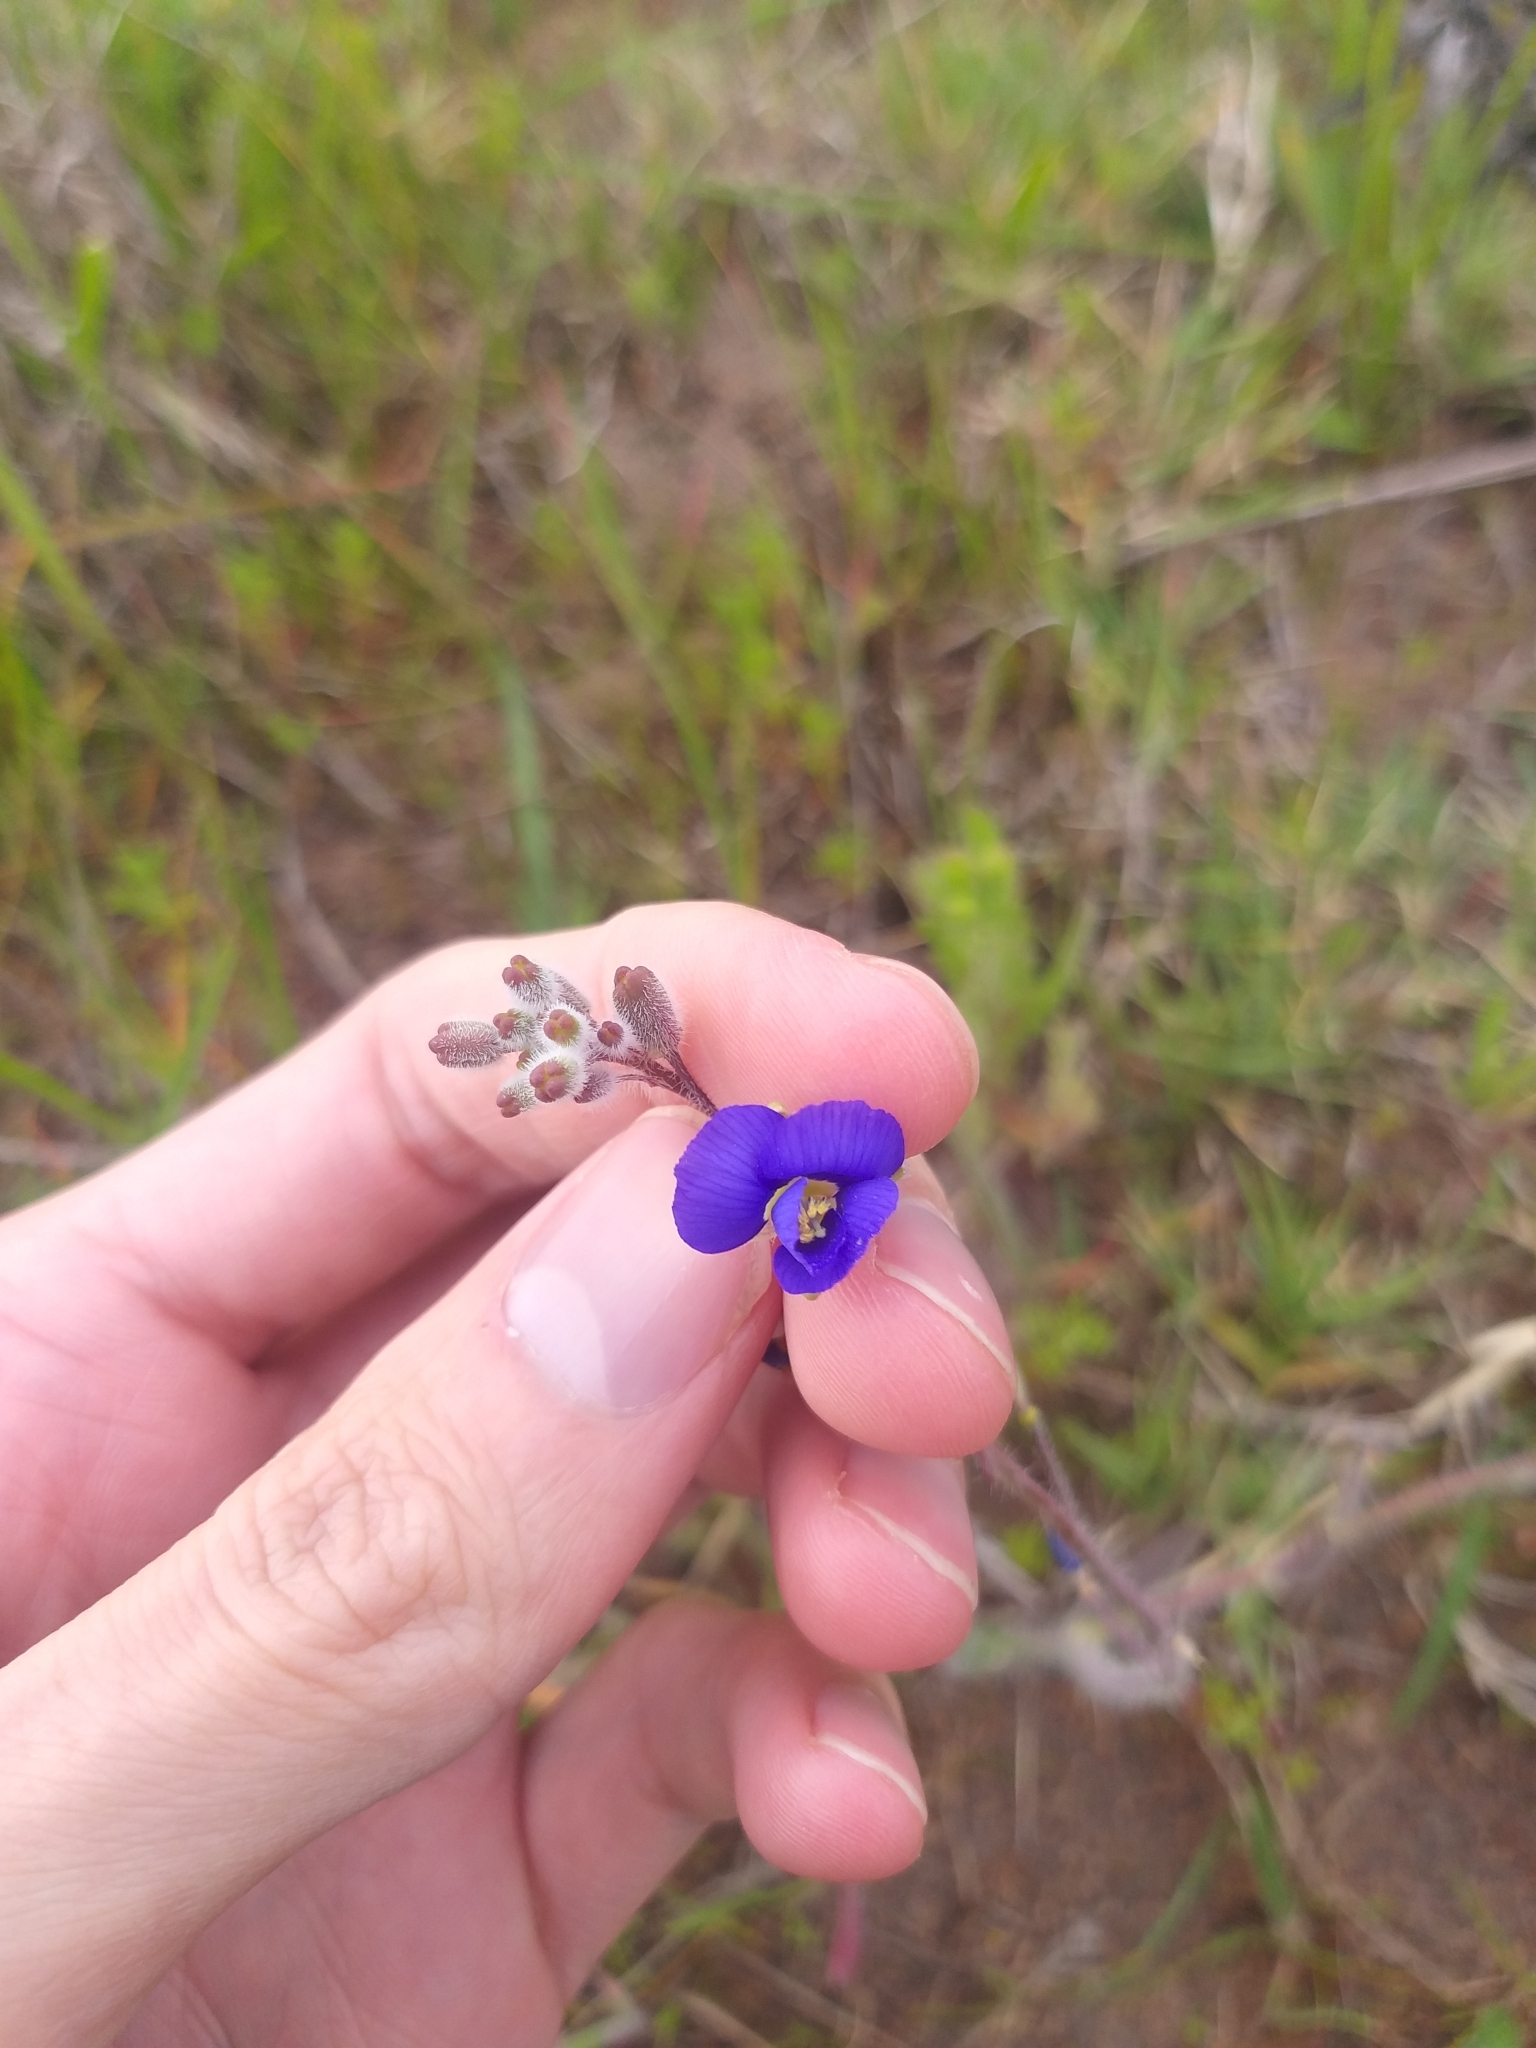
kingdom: Plantae
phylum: Tracheophyta
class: Magnoliopsida
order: Brassicales
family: Brassicaceae
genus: Heliophila
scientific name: Heliophila africana
